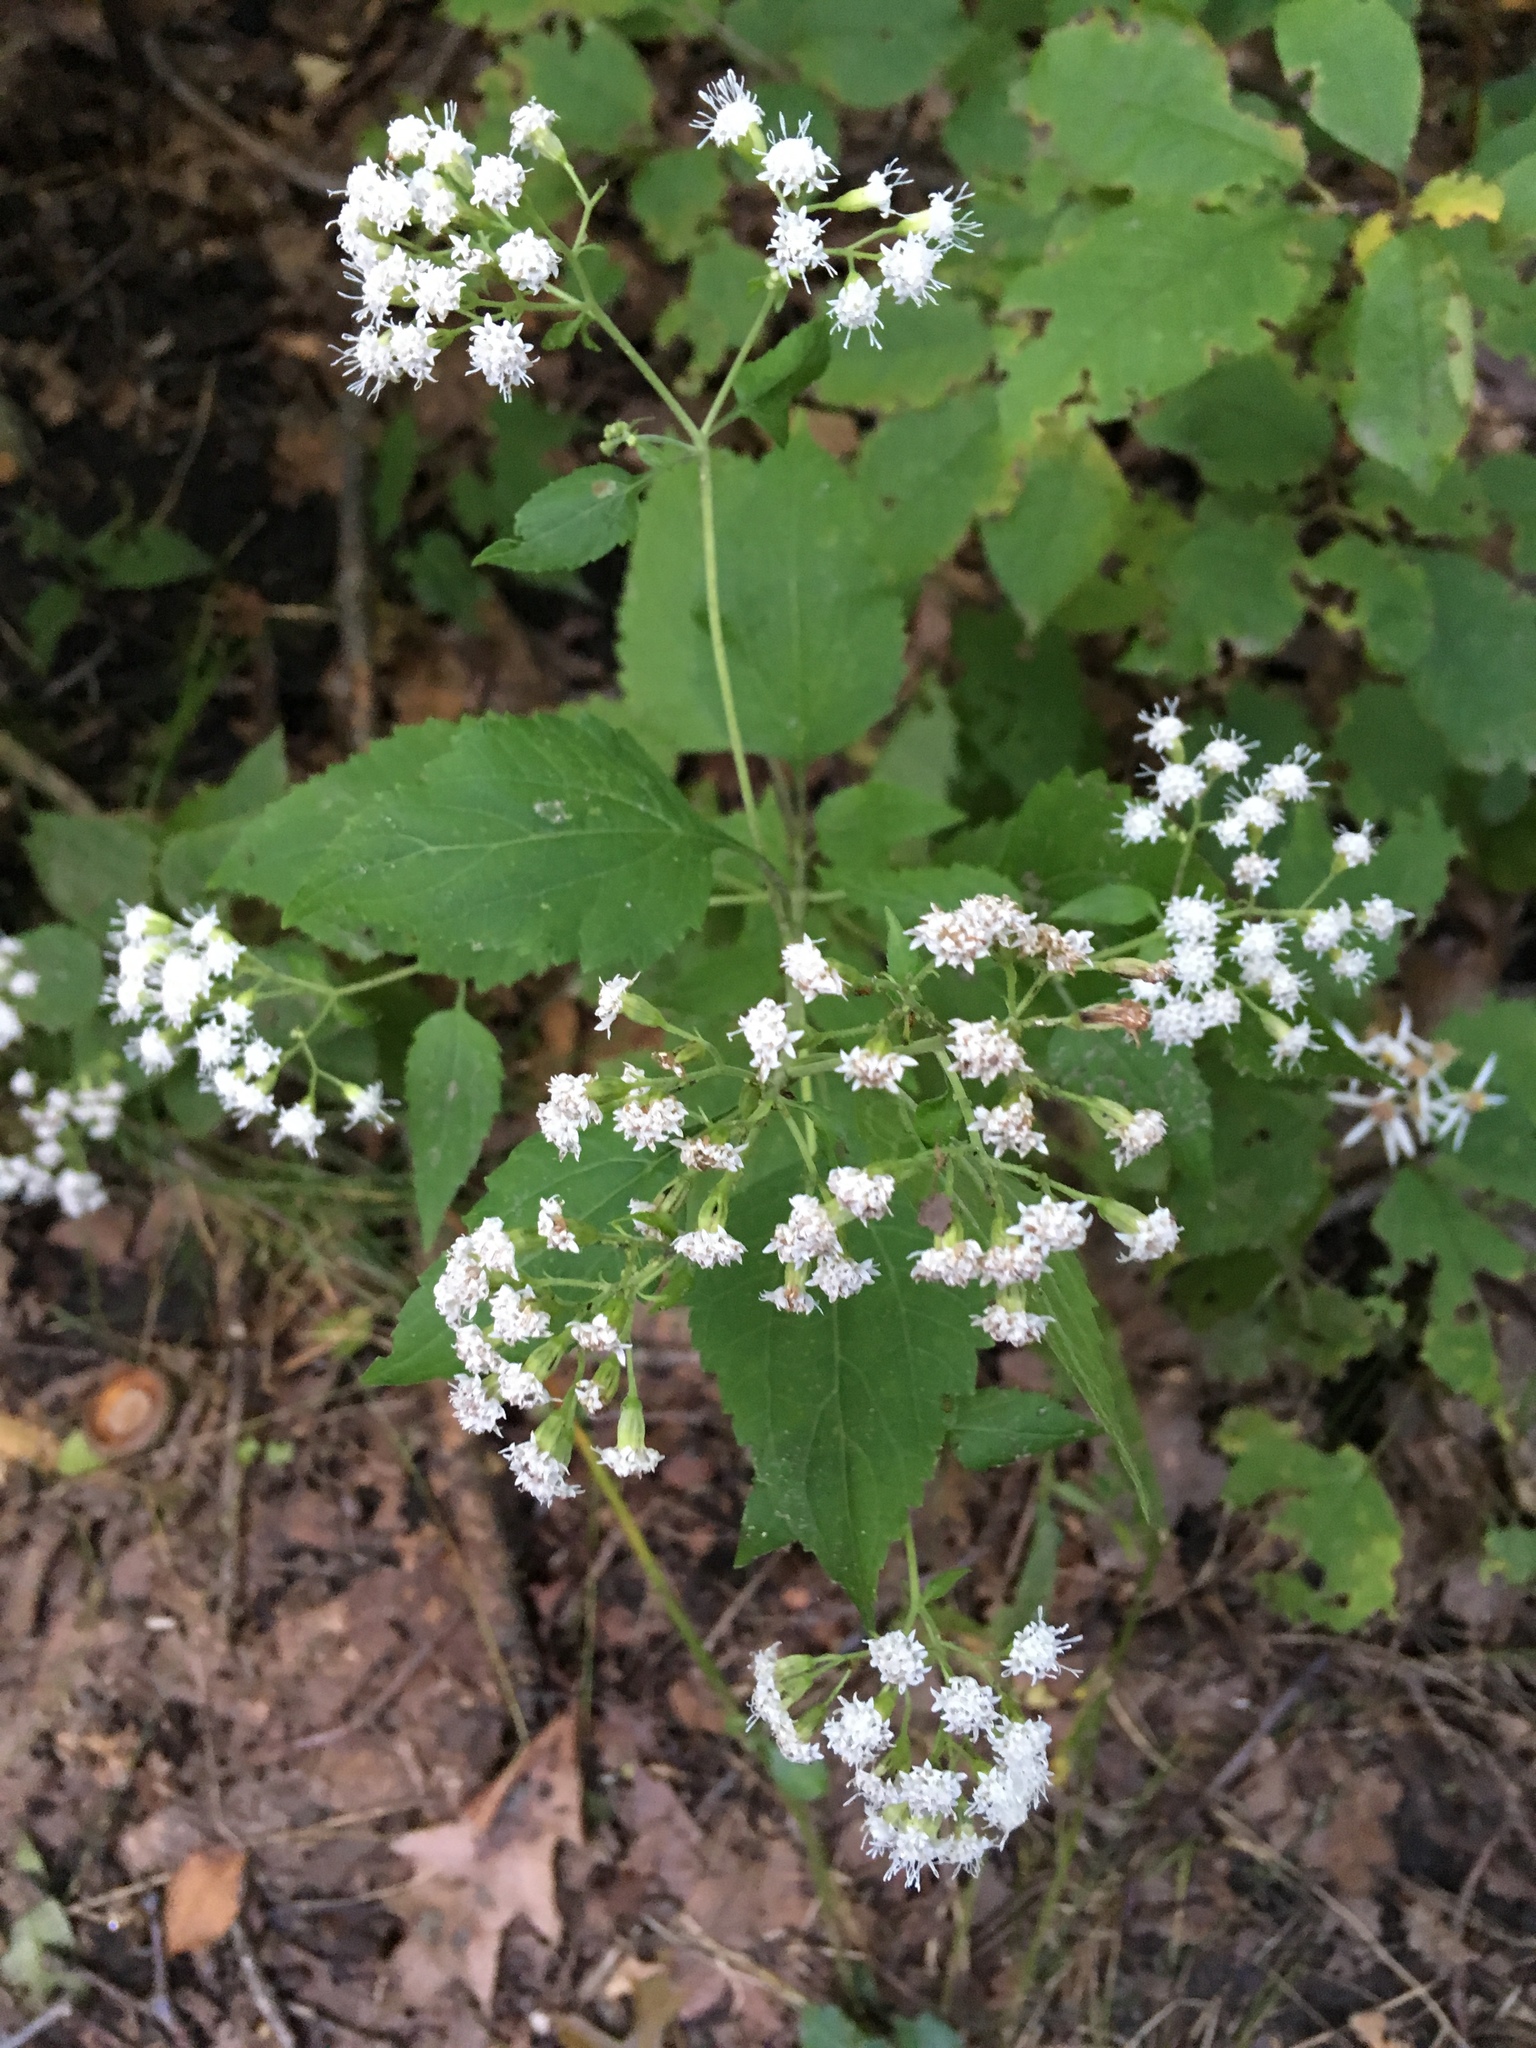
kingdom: Plantae
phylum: Tracheophyta
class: Magnoliopsida
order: Asterales
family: Asteraceae
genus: Ageratina
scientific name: Ageratina altissima
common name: White snakeroot
